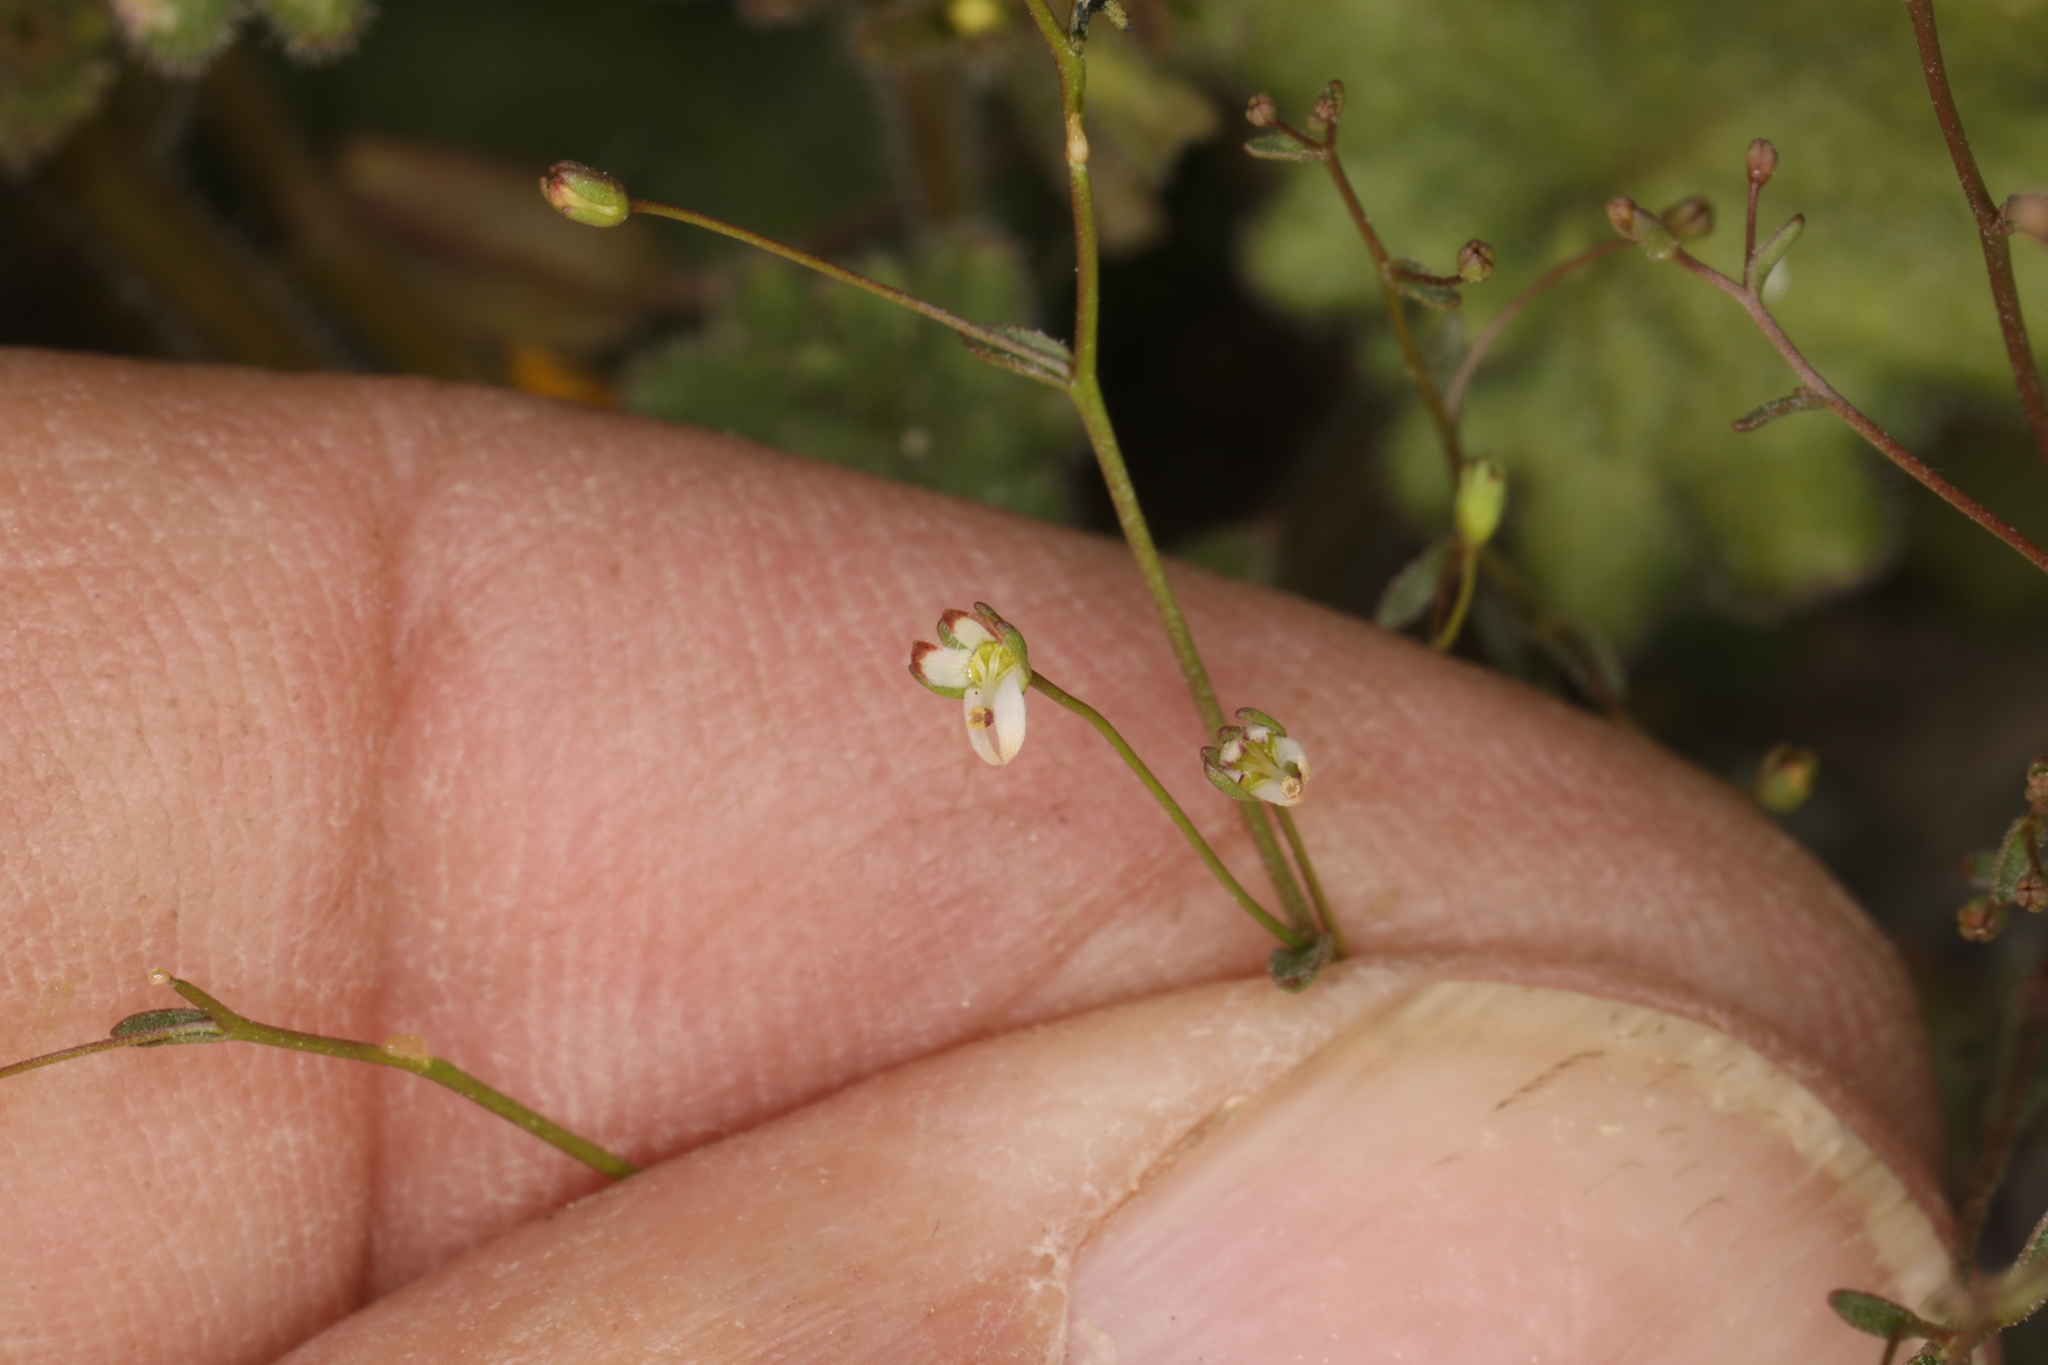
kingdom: Plantae
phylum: Tracheophyta
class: Magnoliopsida
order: Asterales
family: Campanulaceae
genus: Nemacladus
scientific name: Nemacladus morefieldii
